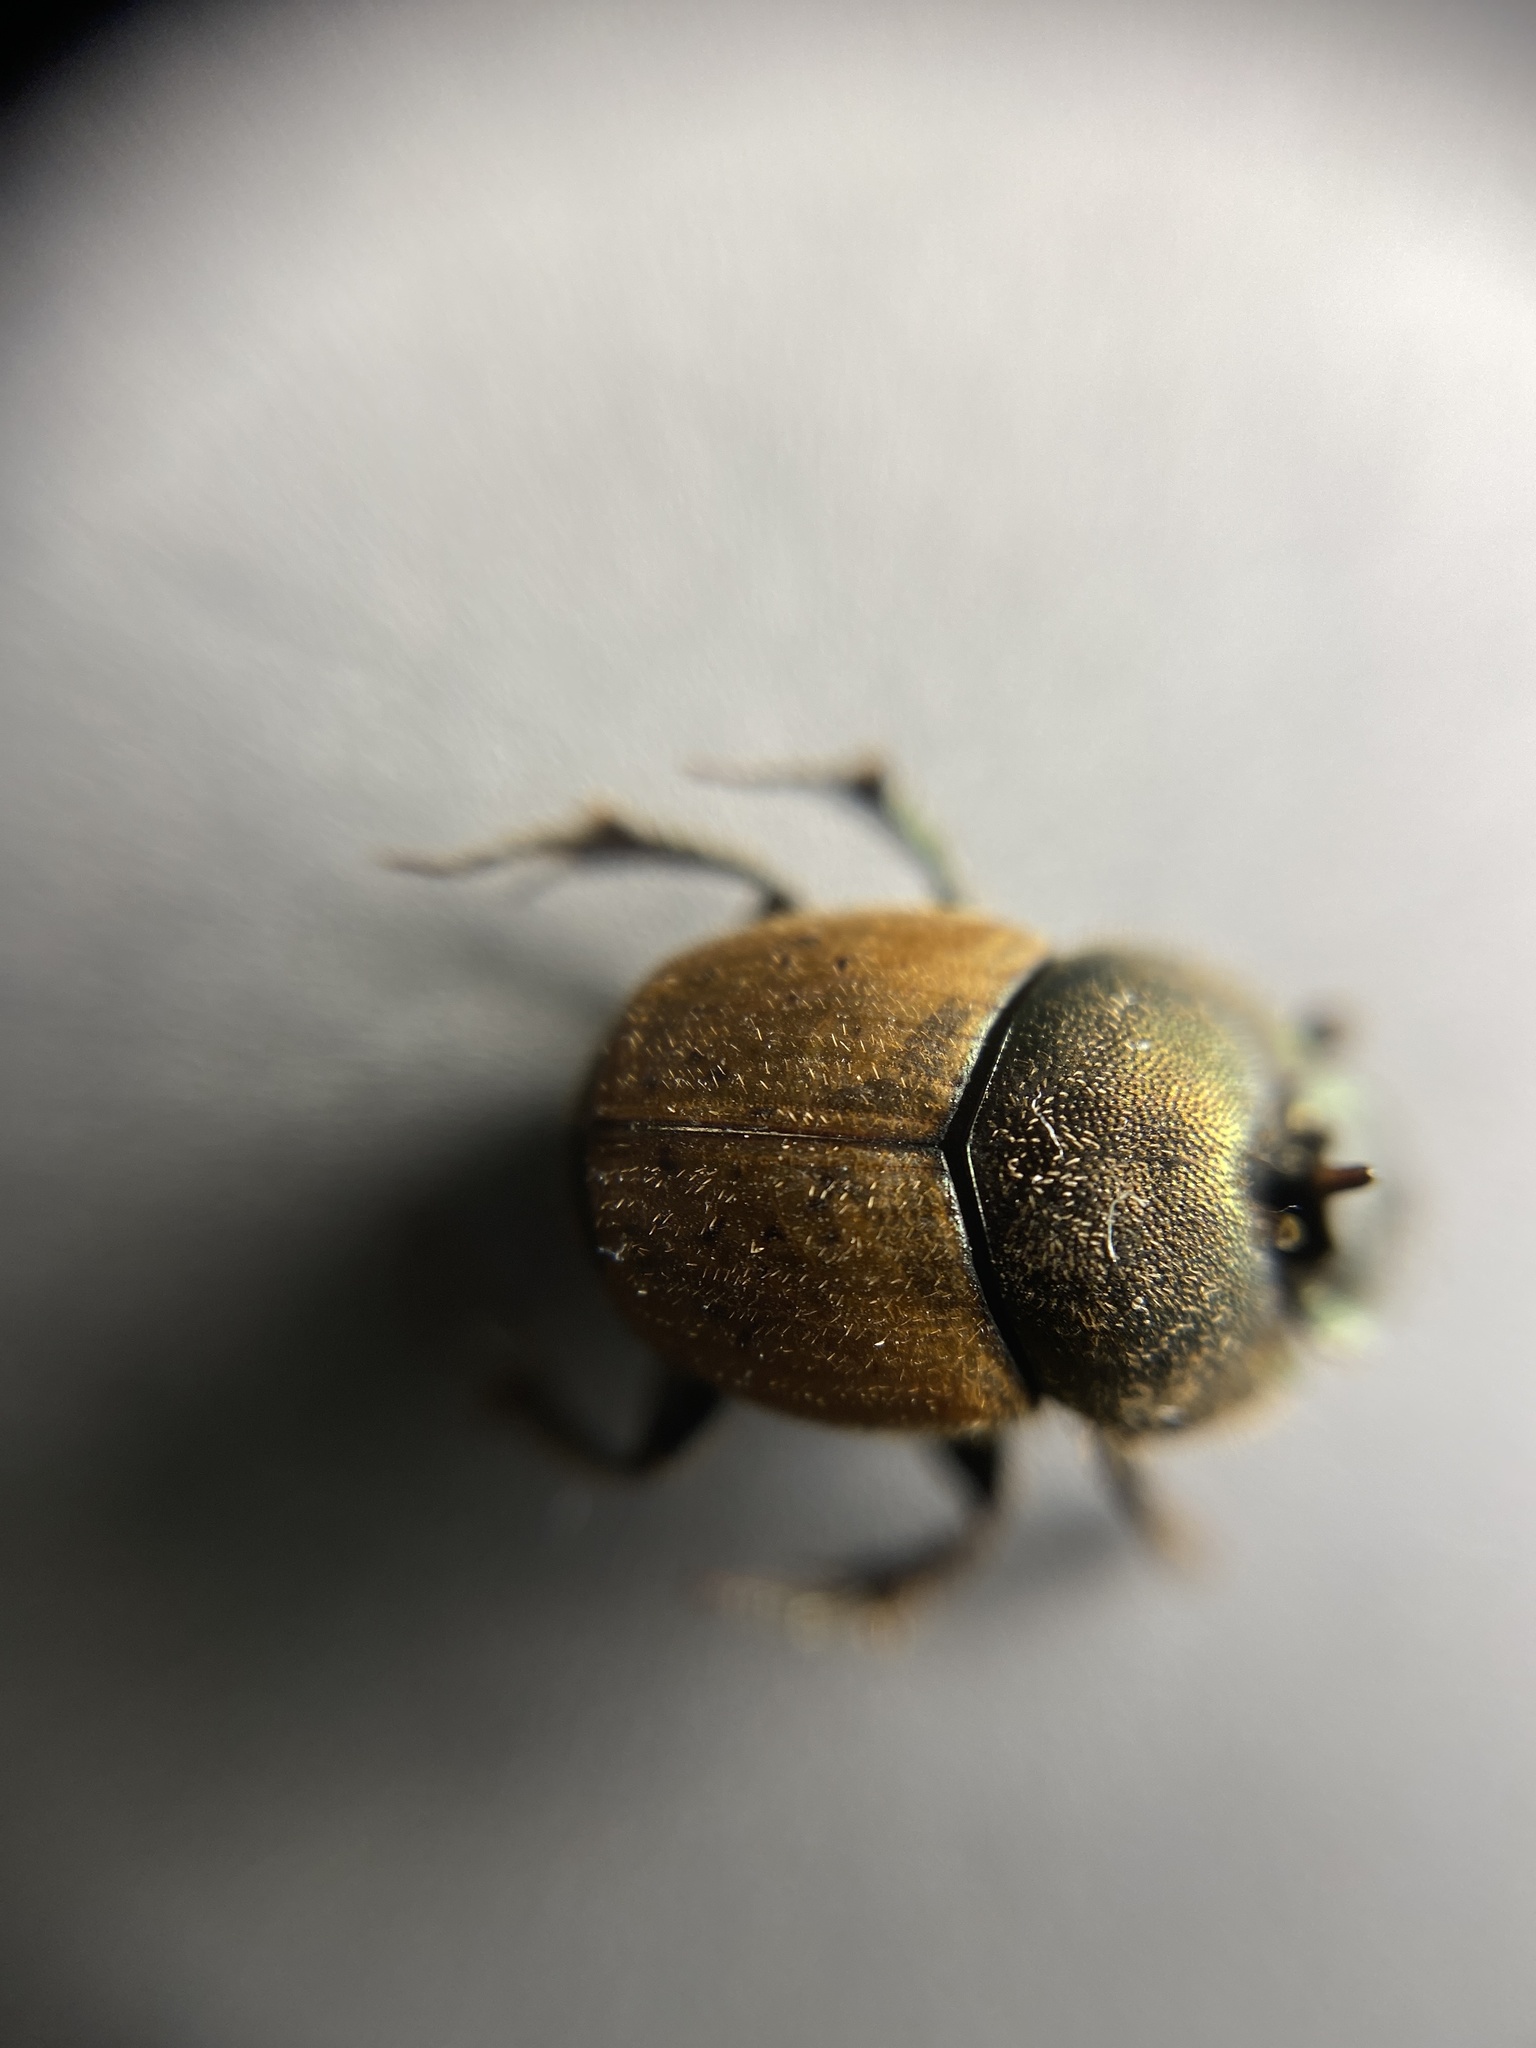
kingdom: Animalia
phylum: Arthropoda
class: Insecta
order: Coleoptera
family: Scarabaeidae
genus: Onthophagus
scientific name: Onthophagus coenobita
